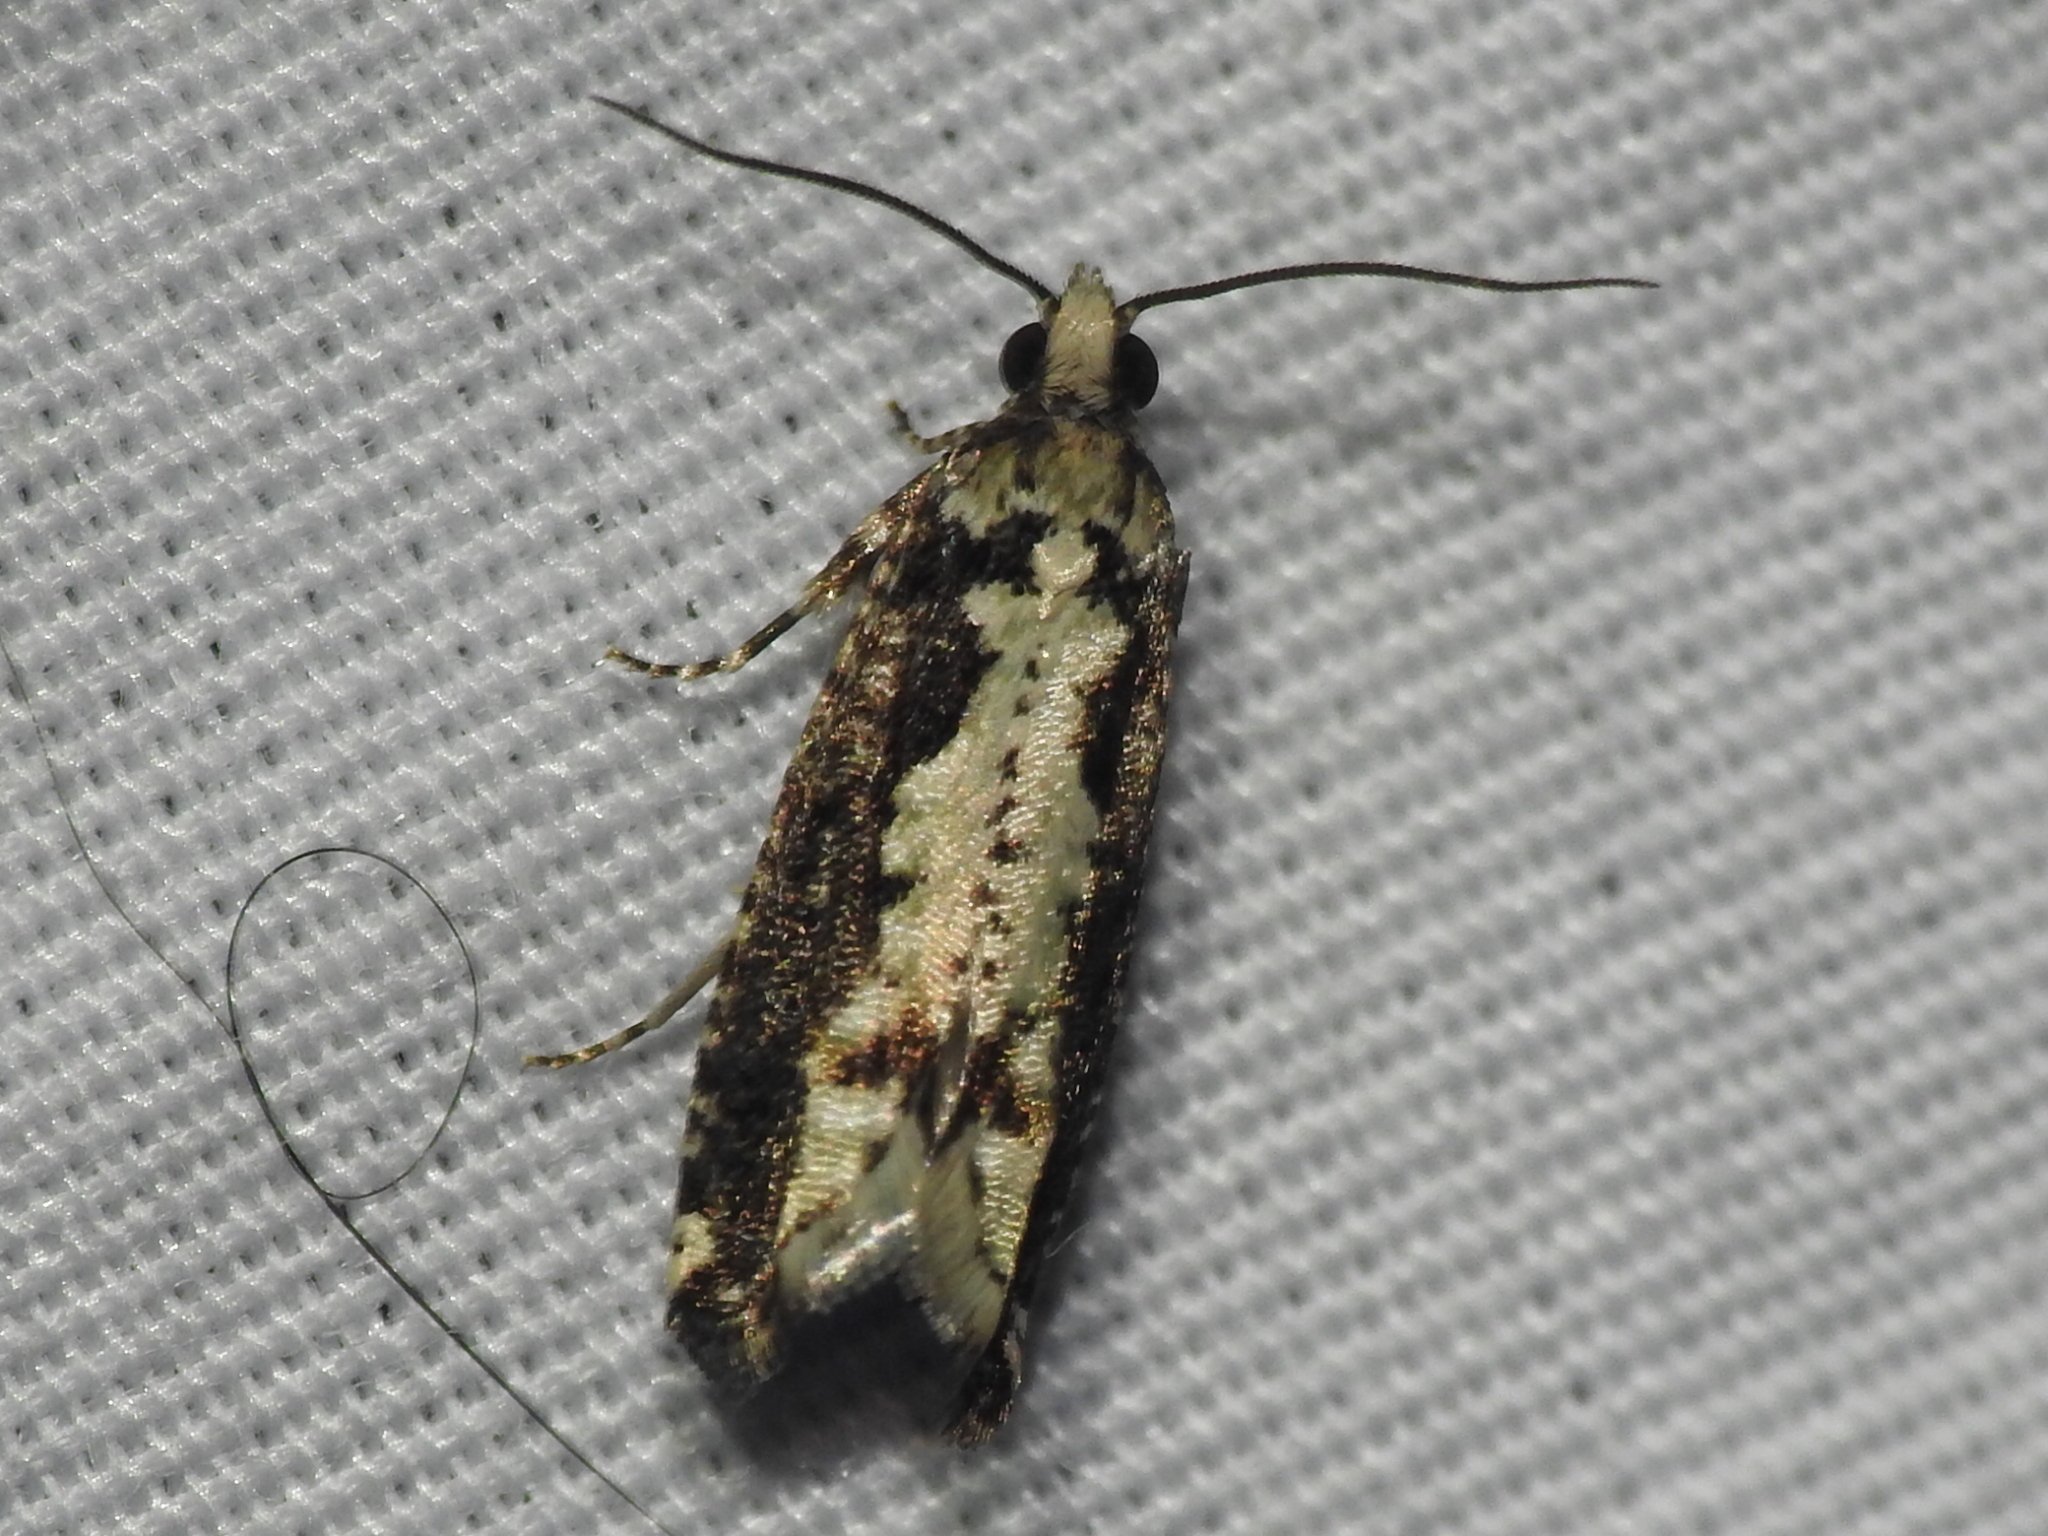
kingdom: Animalia
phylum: Arthropoda
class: Insecta
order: Lepidoptera
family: Tortricidae
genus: Chimoptesis
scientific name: Chimoptesis pennsylvaniana
